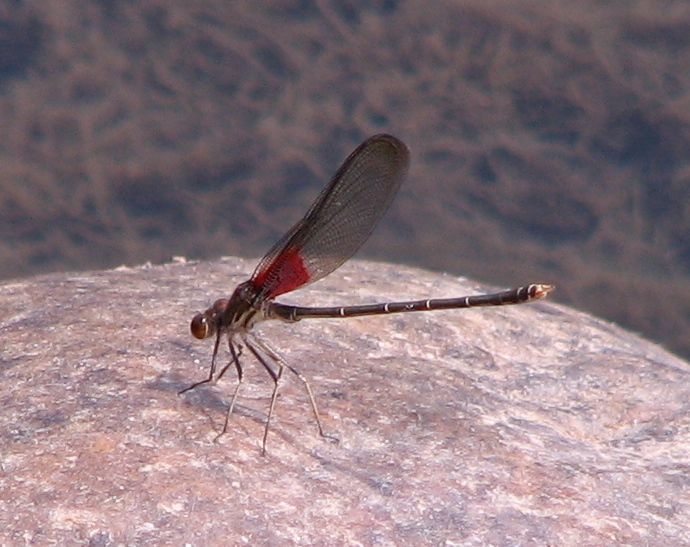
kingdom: Animalia
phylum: Arthropoda
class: Insecta
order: Odonata
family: Calopterygidae
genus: Hetaerina
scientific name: Hetaerina americana
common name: American rubyspot
